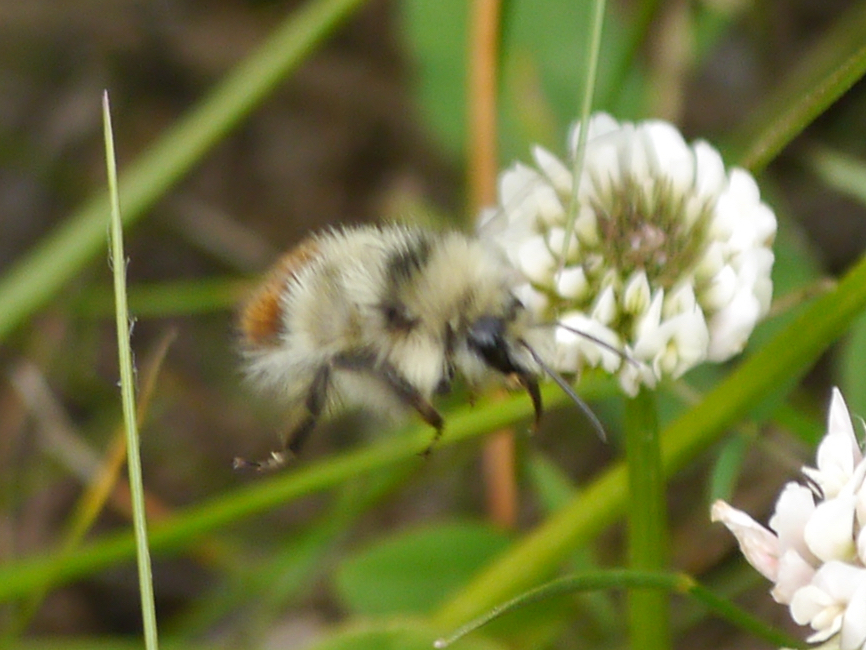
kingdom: Animalia
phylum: Arthropoda
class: Insecta
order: Hymenoptera
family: Apidae
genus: Bombus
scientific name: Bombus flavifrons
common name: Yellow head bumble bee
